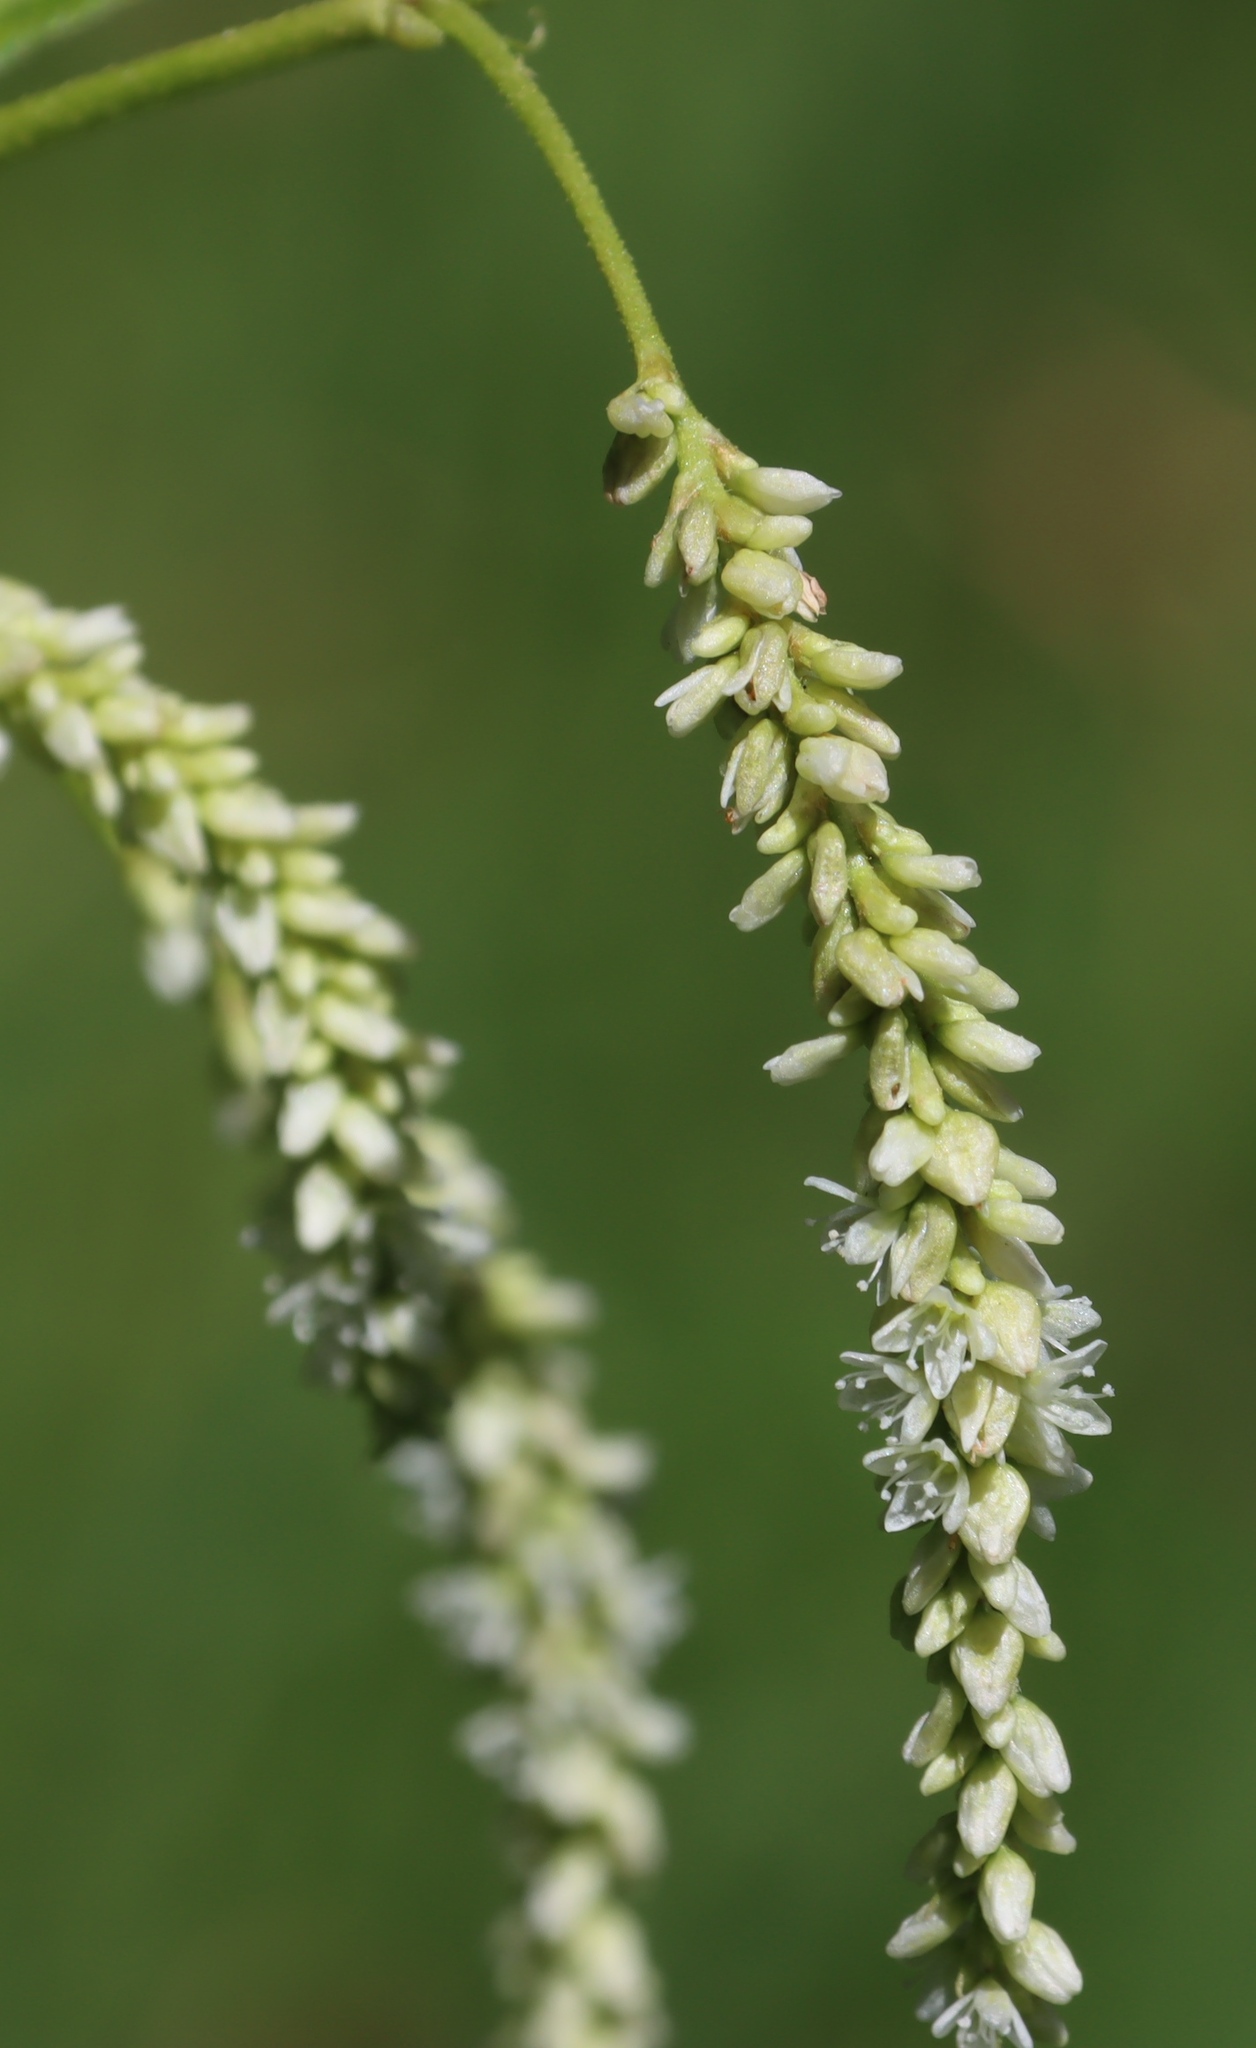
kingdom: Plantae
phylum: Tracheophyta
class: Magnoliopsida
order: Caryophyllales
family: Polygonaceae
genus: Persicaria
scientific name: Persicaria lapathifolia
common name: Curlytop knotweed
